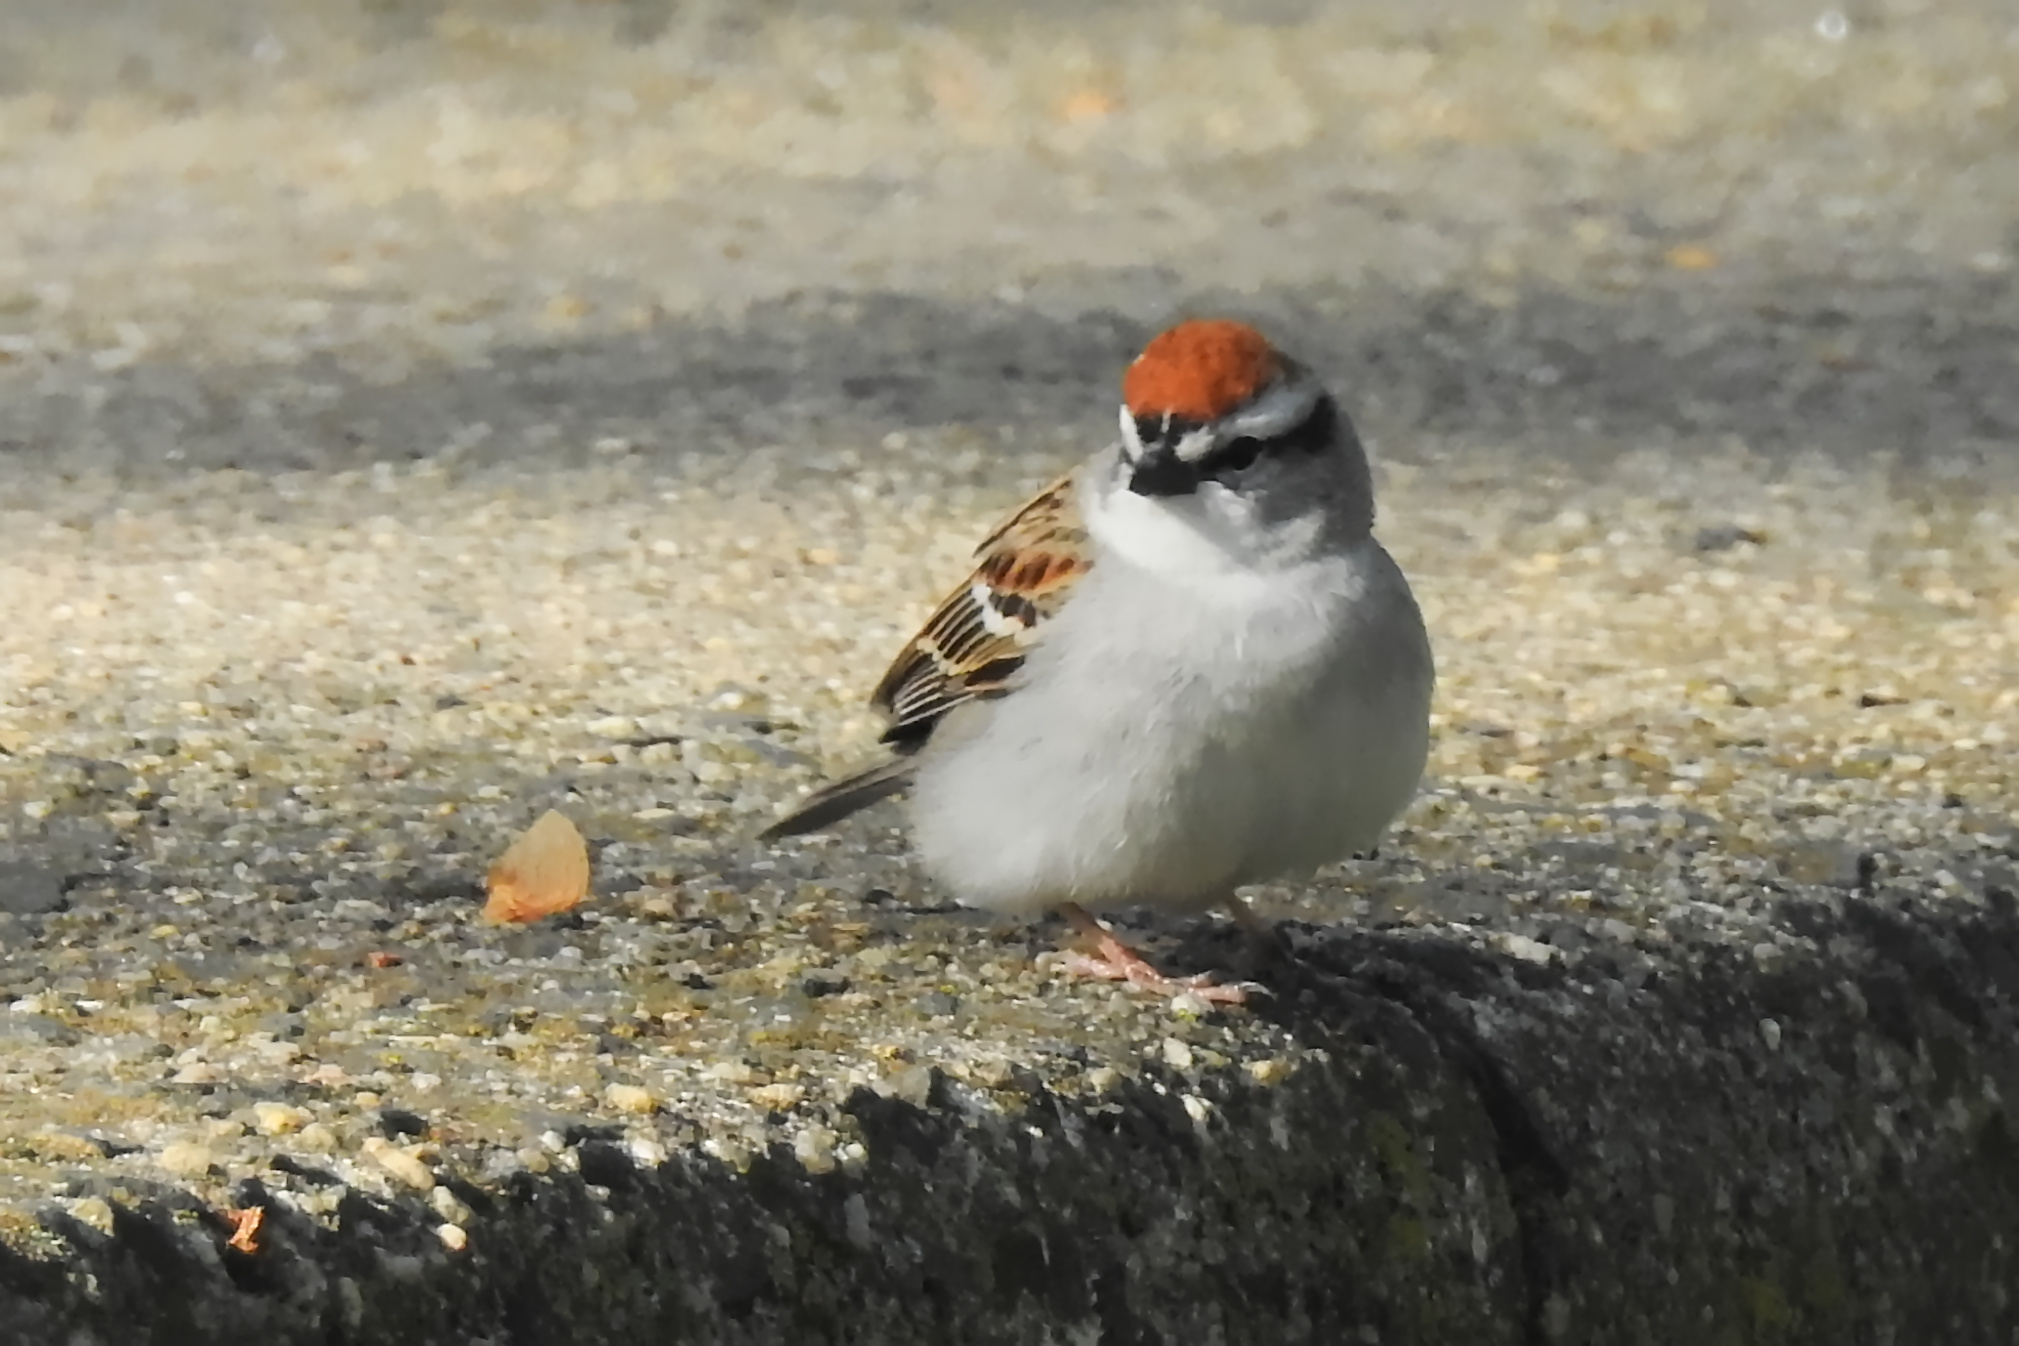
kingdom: Animalia
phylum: Chordata
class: Aves
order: Passeriformes
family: Passerellidae
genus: Spizella
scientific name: Spizella passerina
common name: Chipping sparrow
